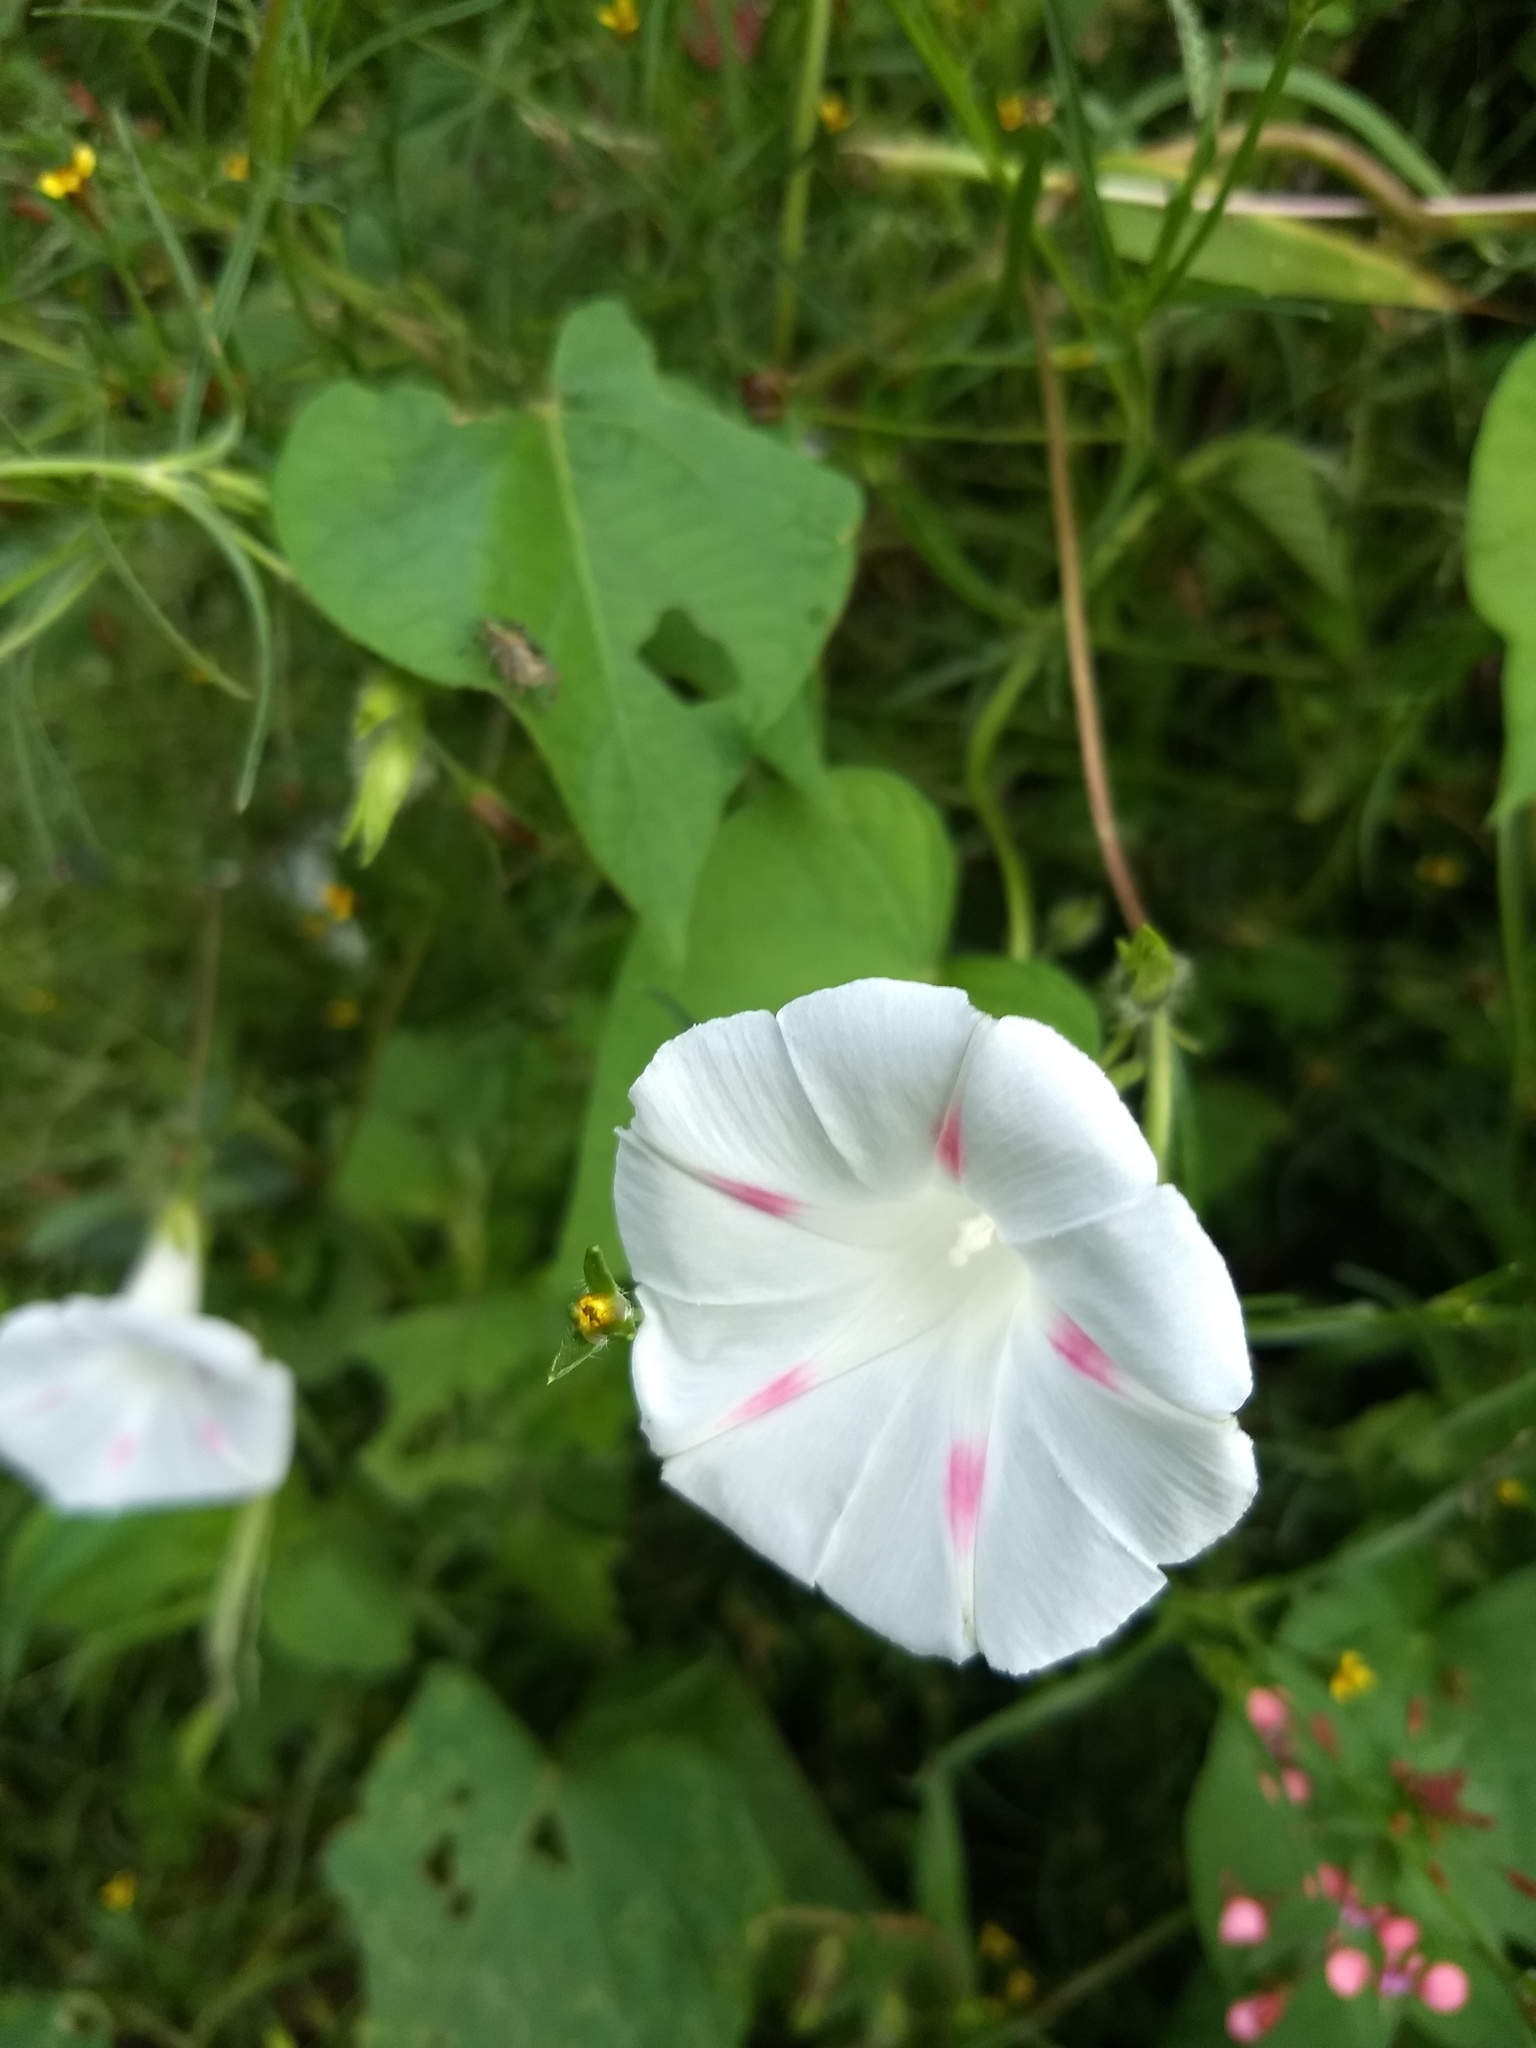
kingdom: Plantae
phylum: Tracheophyta
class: Magnoliopsida
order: Solanales
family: Convolvulaceae
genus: Ipomoea
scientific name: Ipomoea purpurea
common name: Common morning-glory
